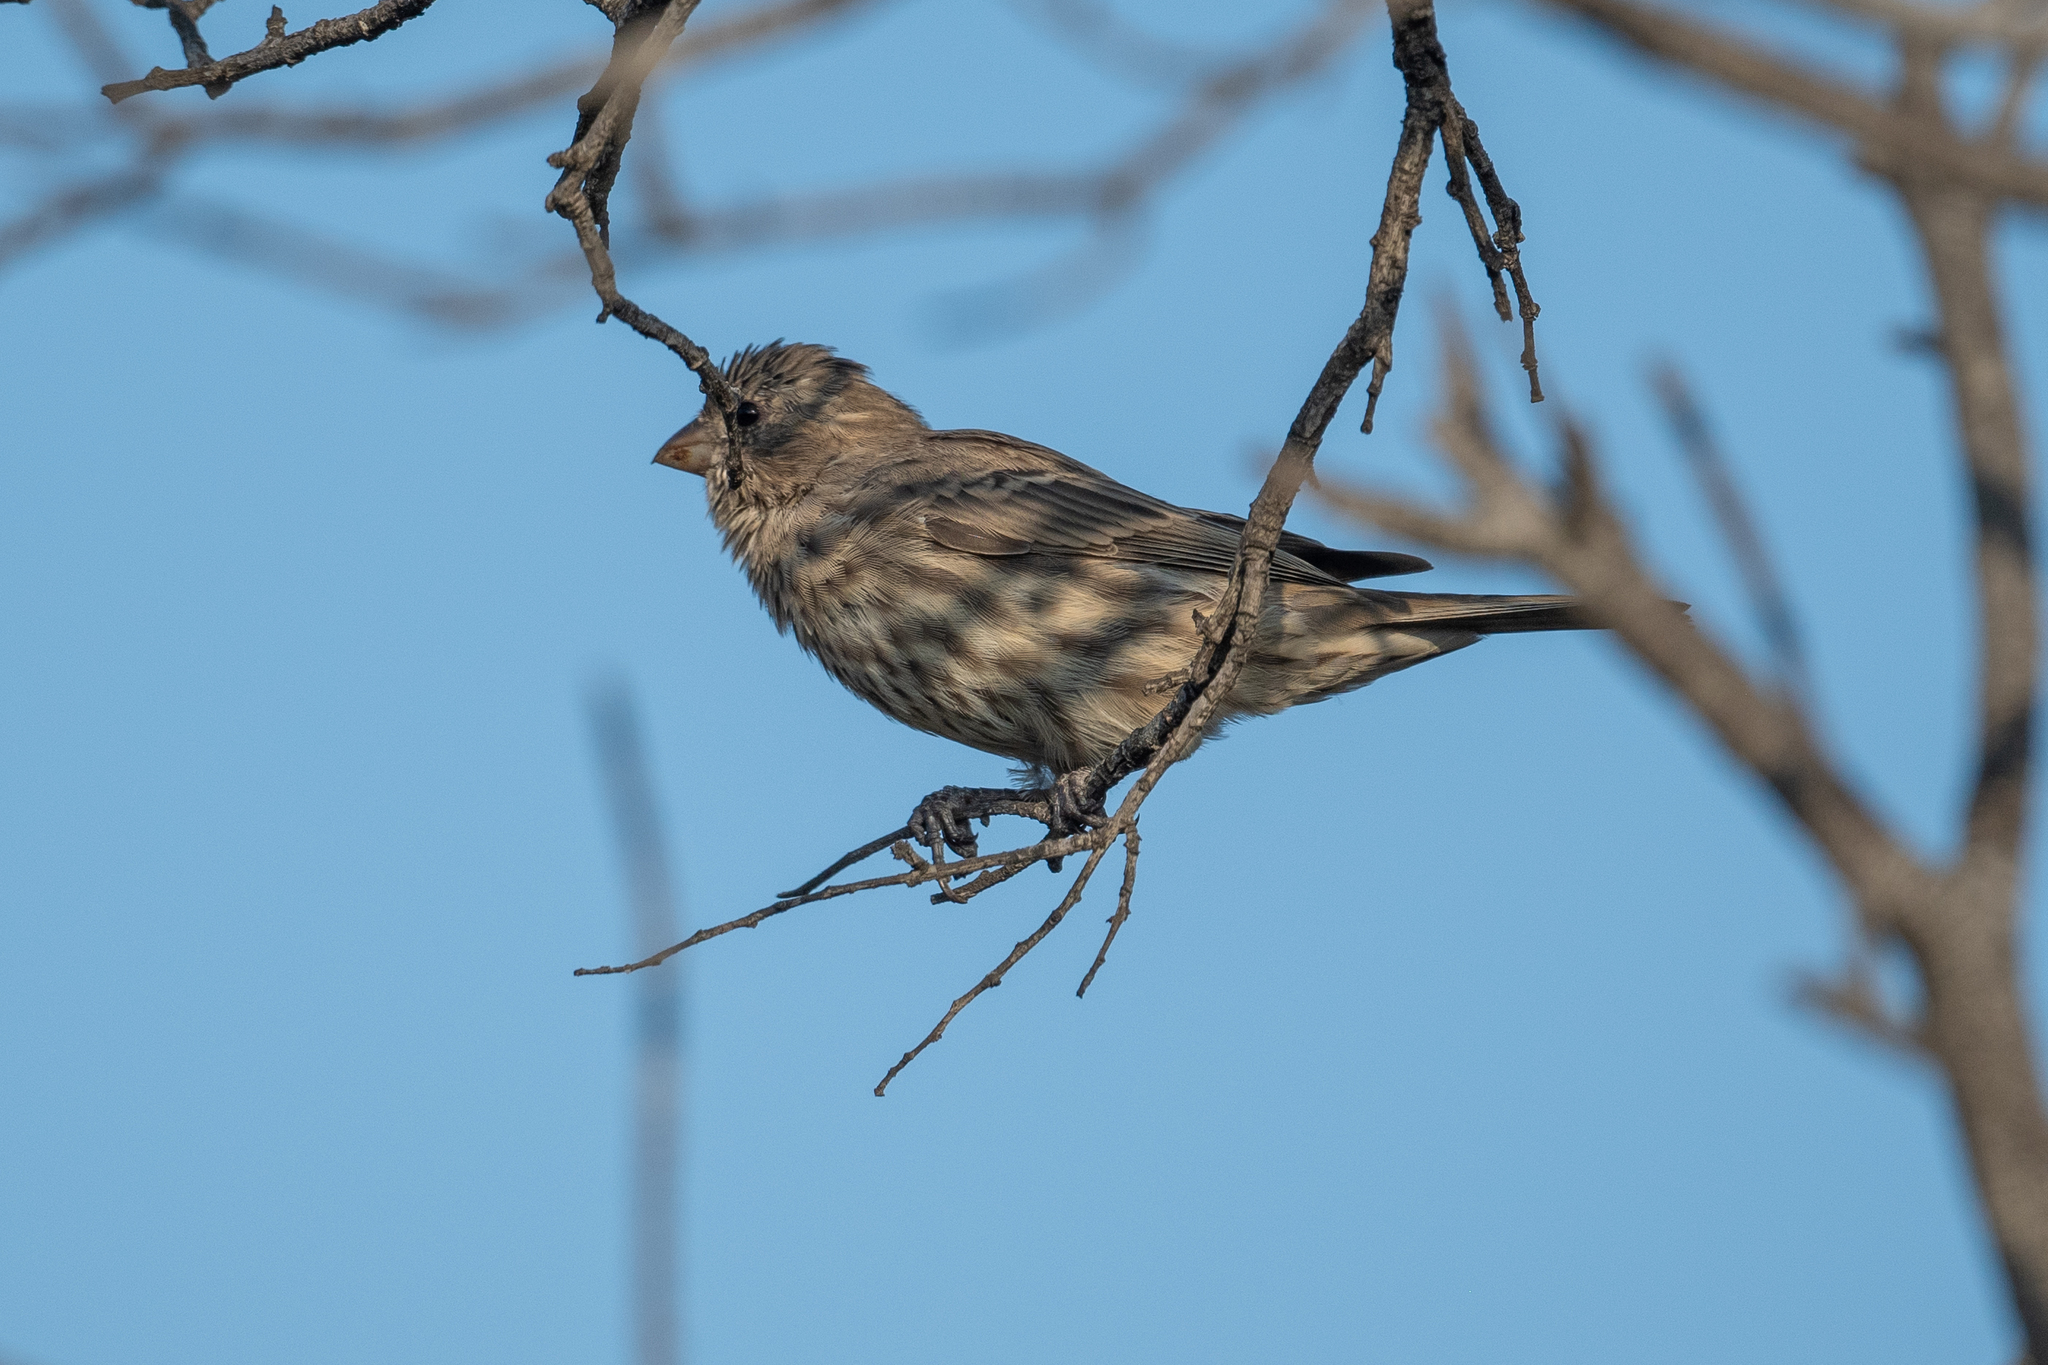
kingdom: Animalia
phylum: Chordata
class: Aves
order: Passeriformes
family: Fringillidae
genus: Haemorhous
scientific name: Haemorhous mexicanus
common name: House finch
